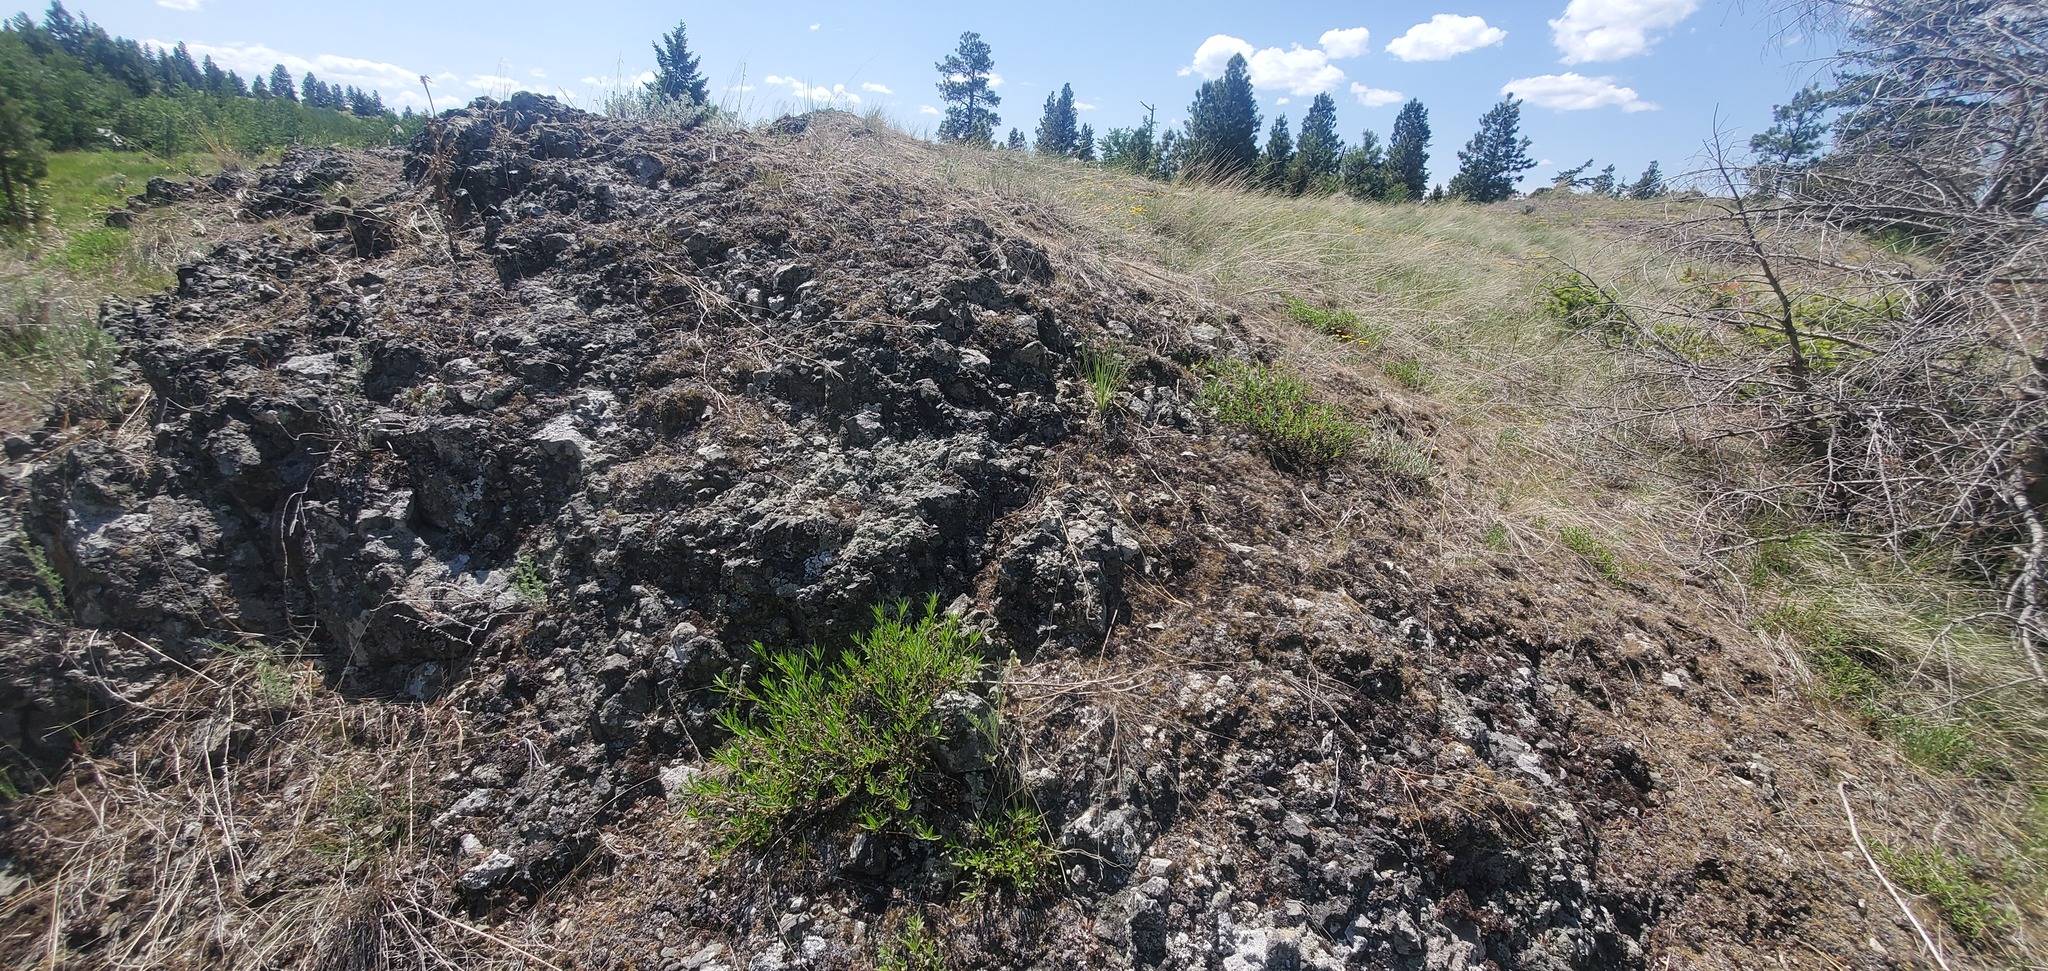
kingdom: Plantae
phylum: Tracheophyta
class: Magnoliopsida
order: Lamiales
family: Plantaginaceae
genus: Penstemon
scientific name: Penstemon fruticosus
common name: Bush penstemon
